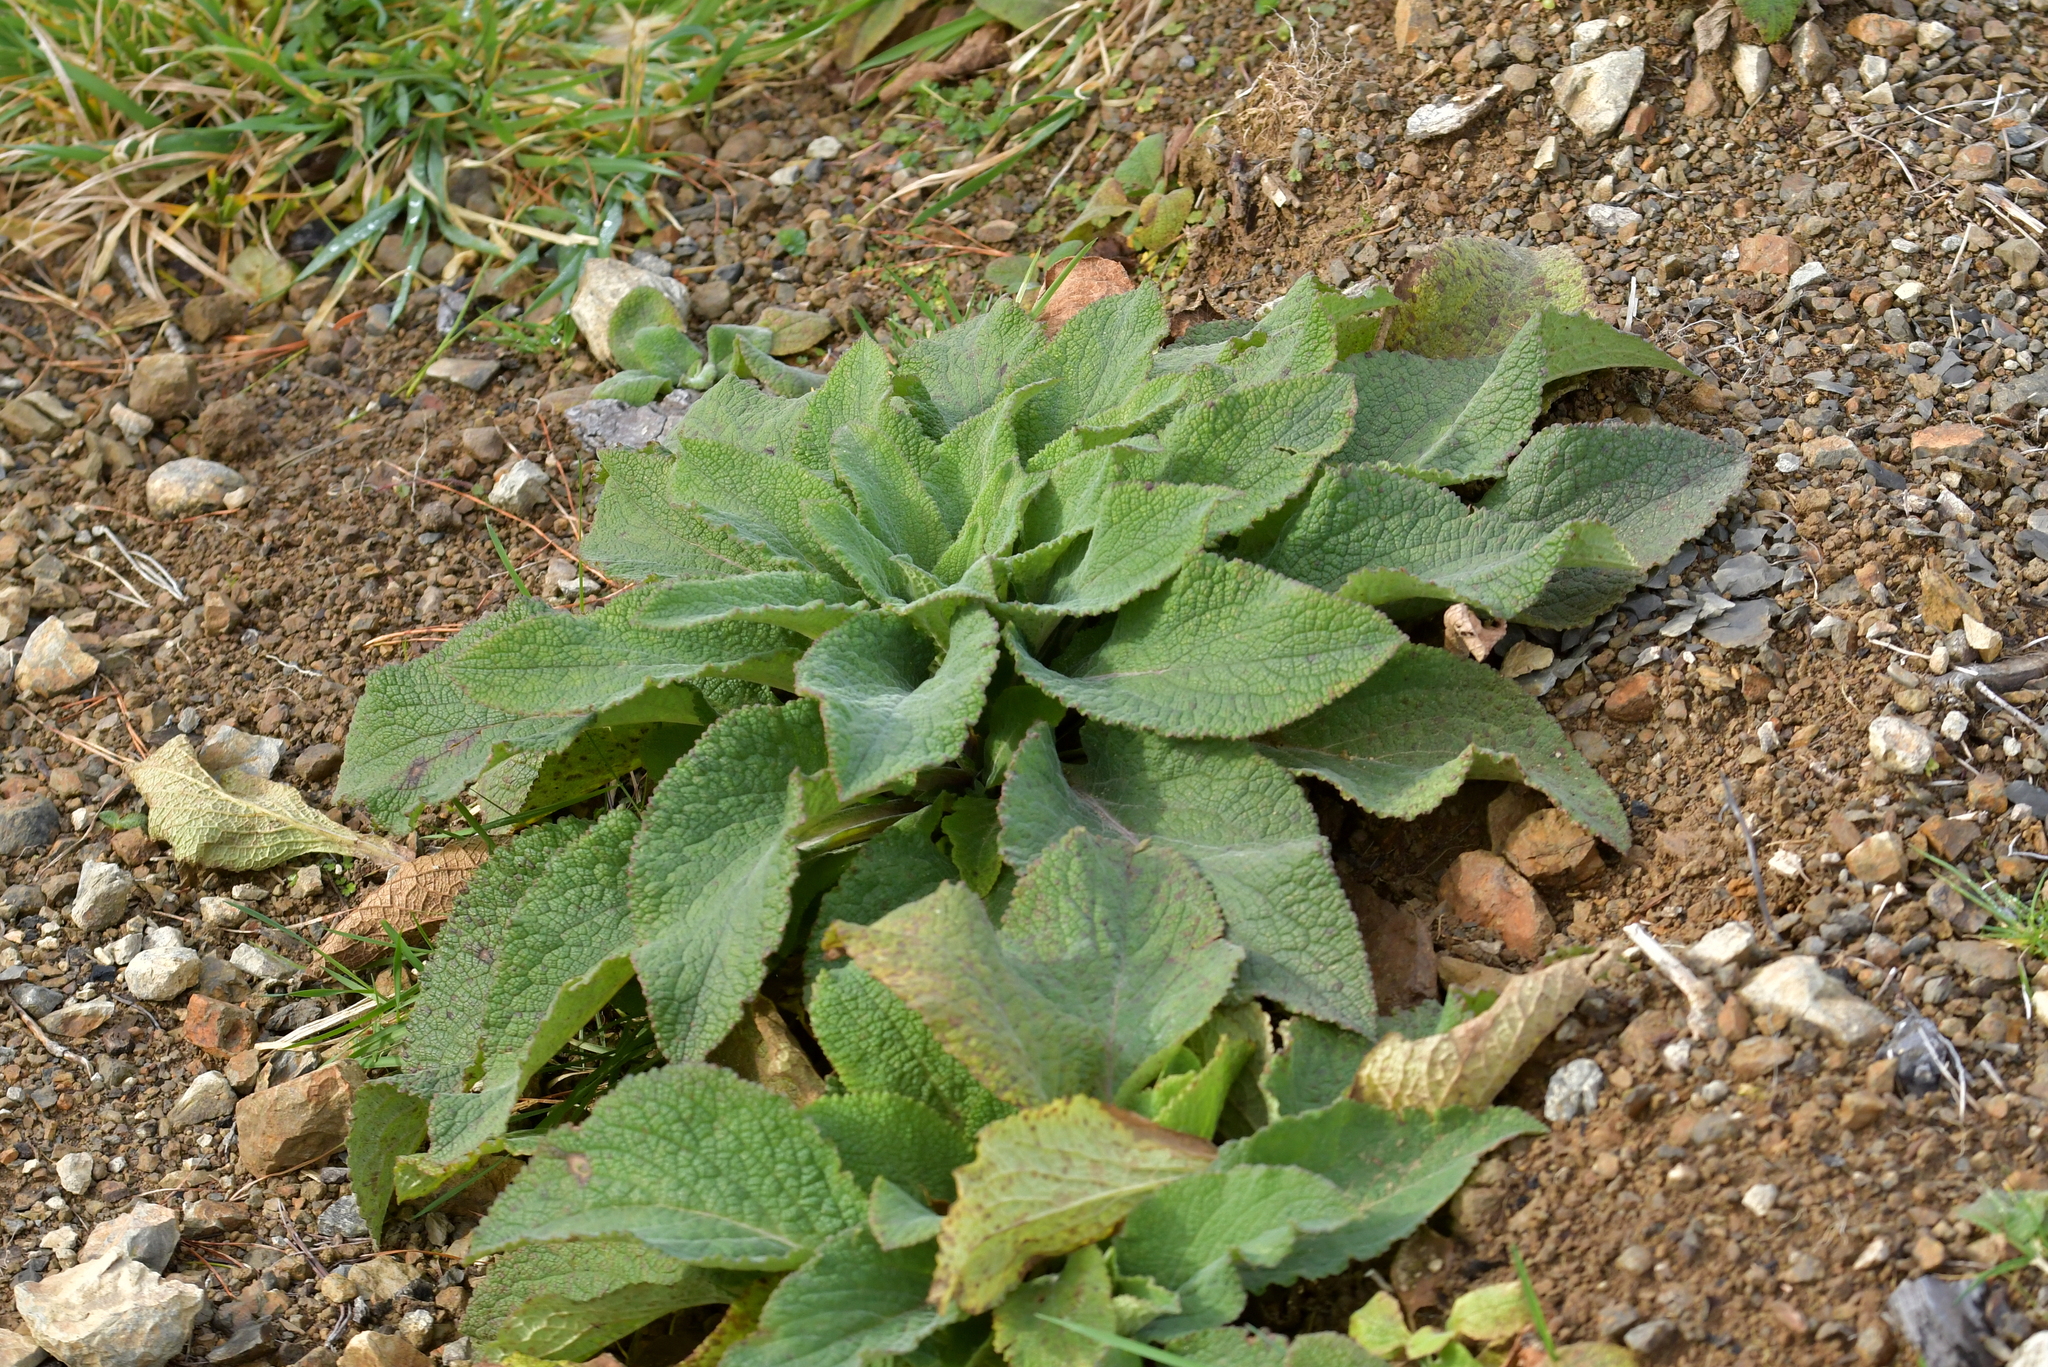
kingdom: Plantae
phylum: Tracheophyta
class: Magnoliopsida
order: Lamiales
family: Plantaginaceae
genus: Digitalis
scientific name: Digitalis purpurea
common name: Foxglove
